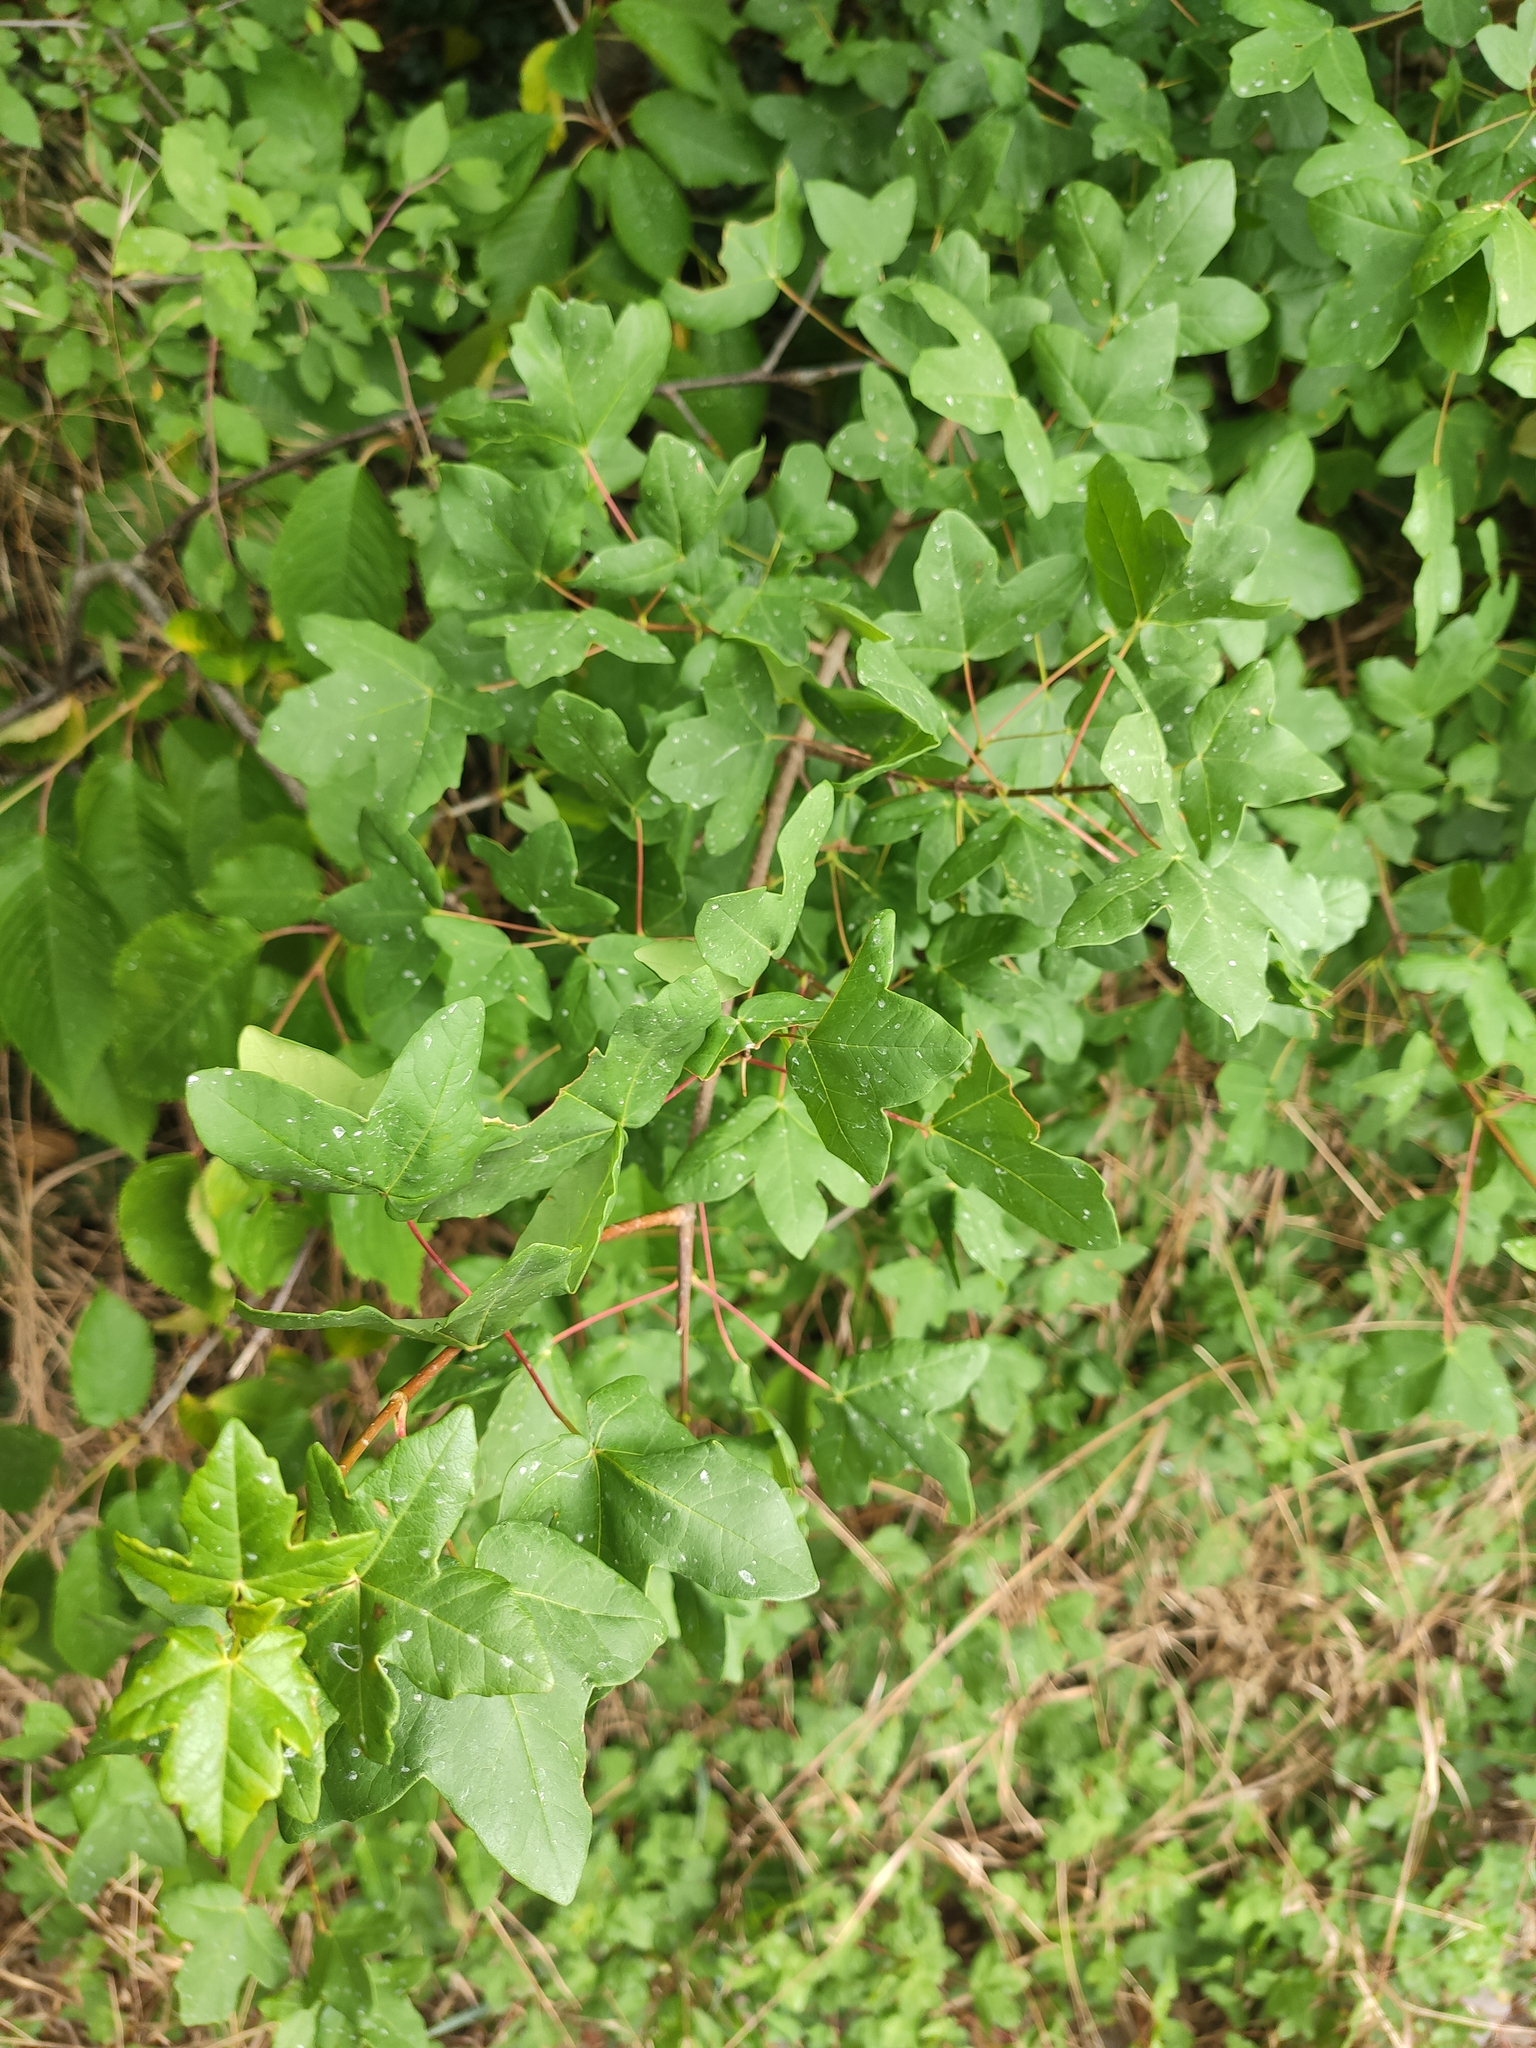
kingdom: Plantae
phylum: Tracheophyta
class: Magnoliopsida
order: Sapindales
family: Sapindaceae
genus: Acer
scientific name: Acer monspessulanum
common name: Montpellier maple
